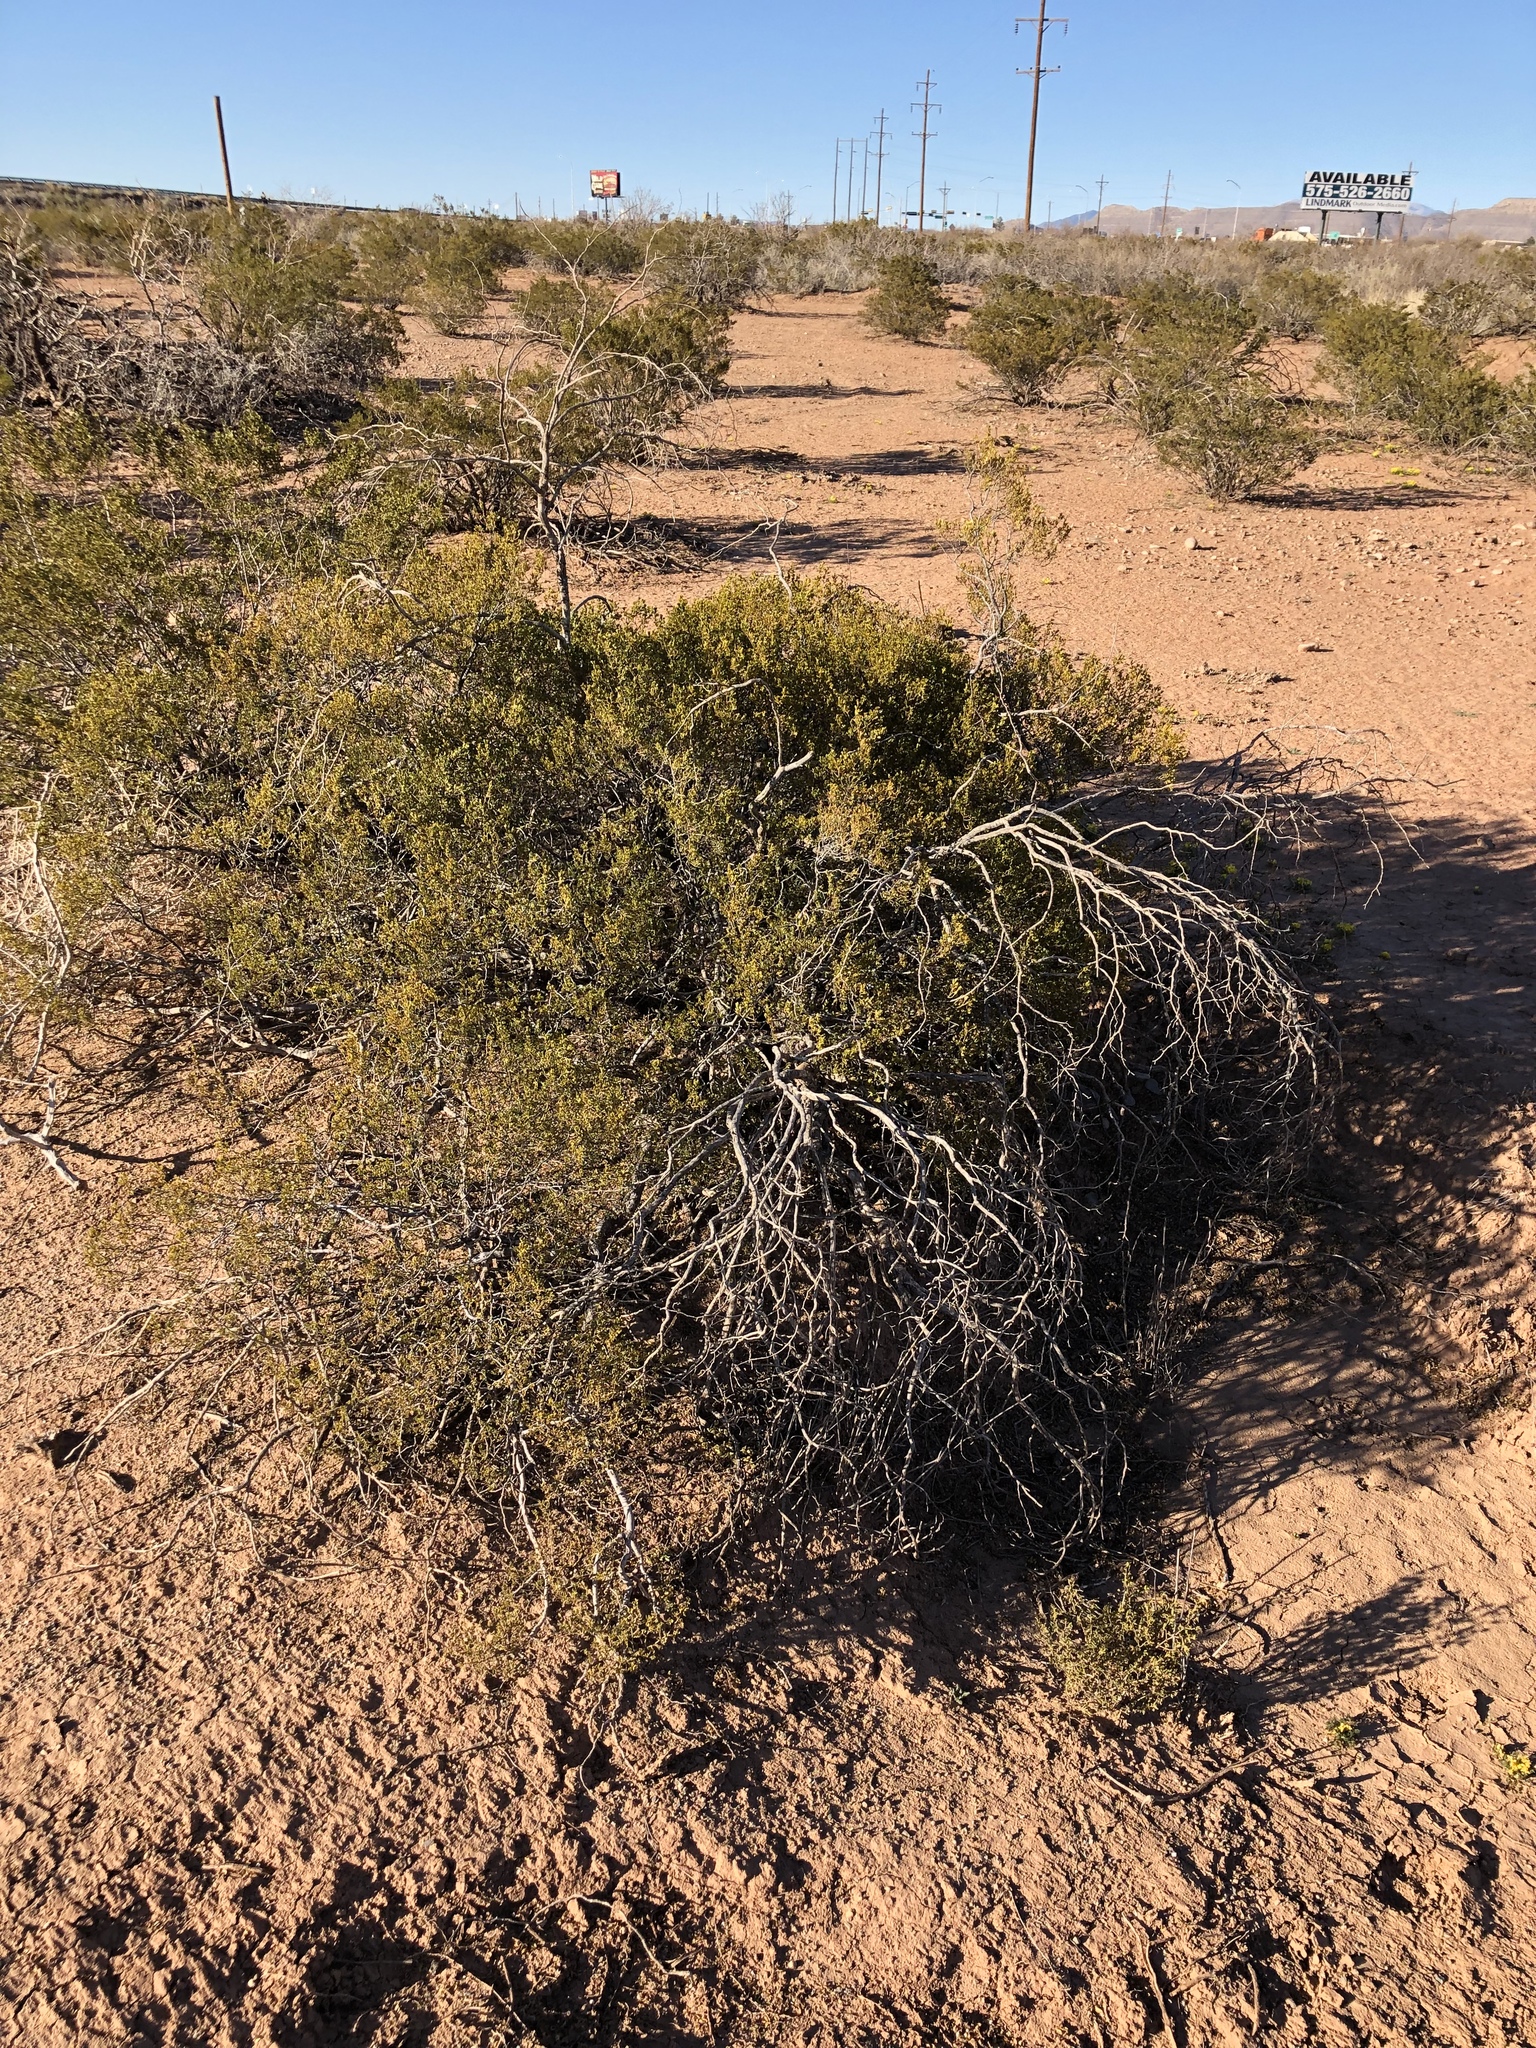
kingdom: Plantae
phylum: Tracheophyta
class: Magnoliopsida
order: Zygophyllales
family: Zygophyllaceae
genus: Larrea
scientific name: Larrea tridentata
